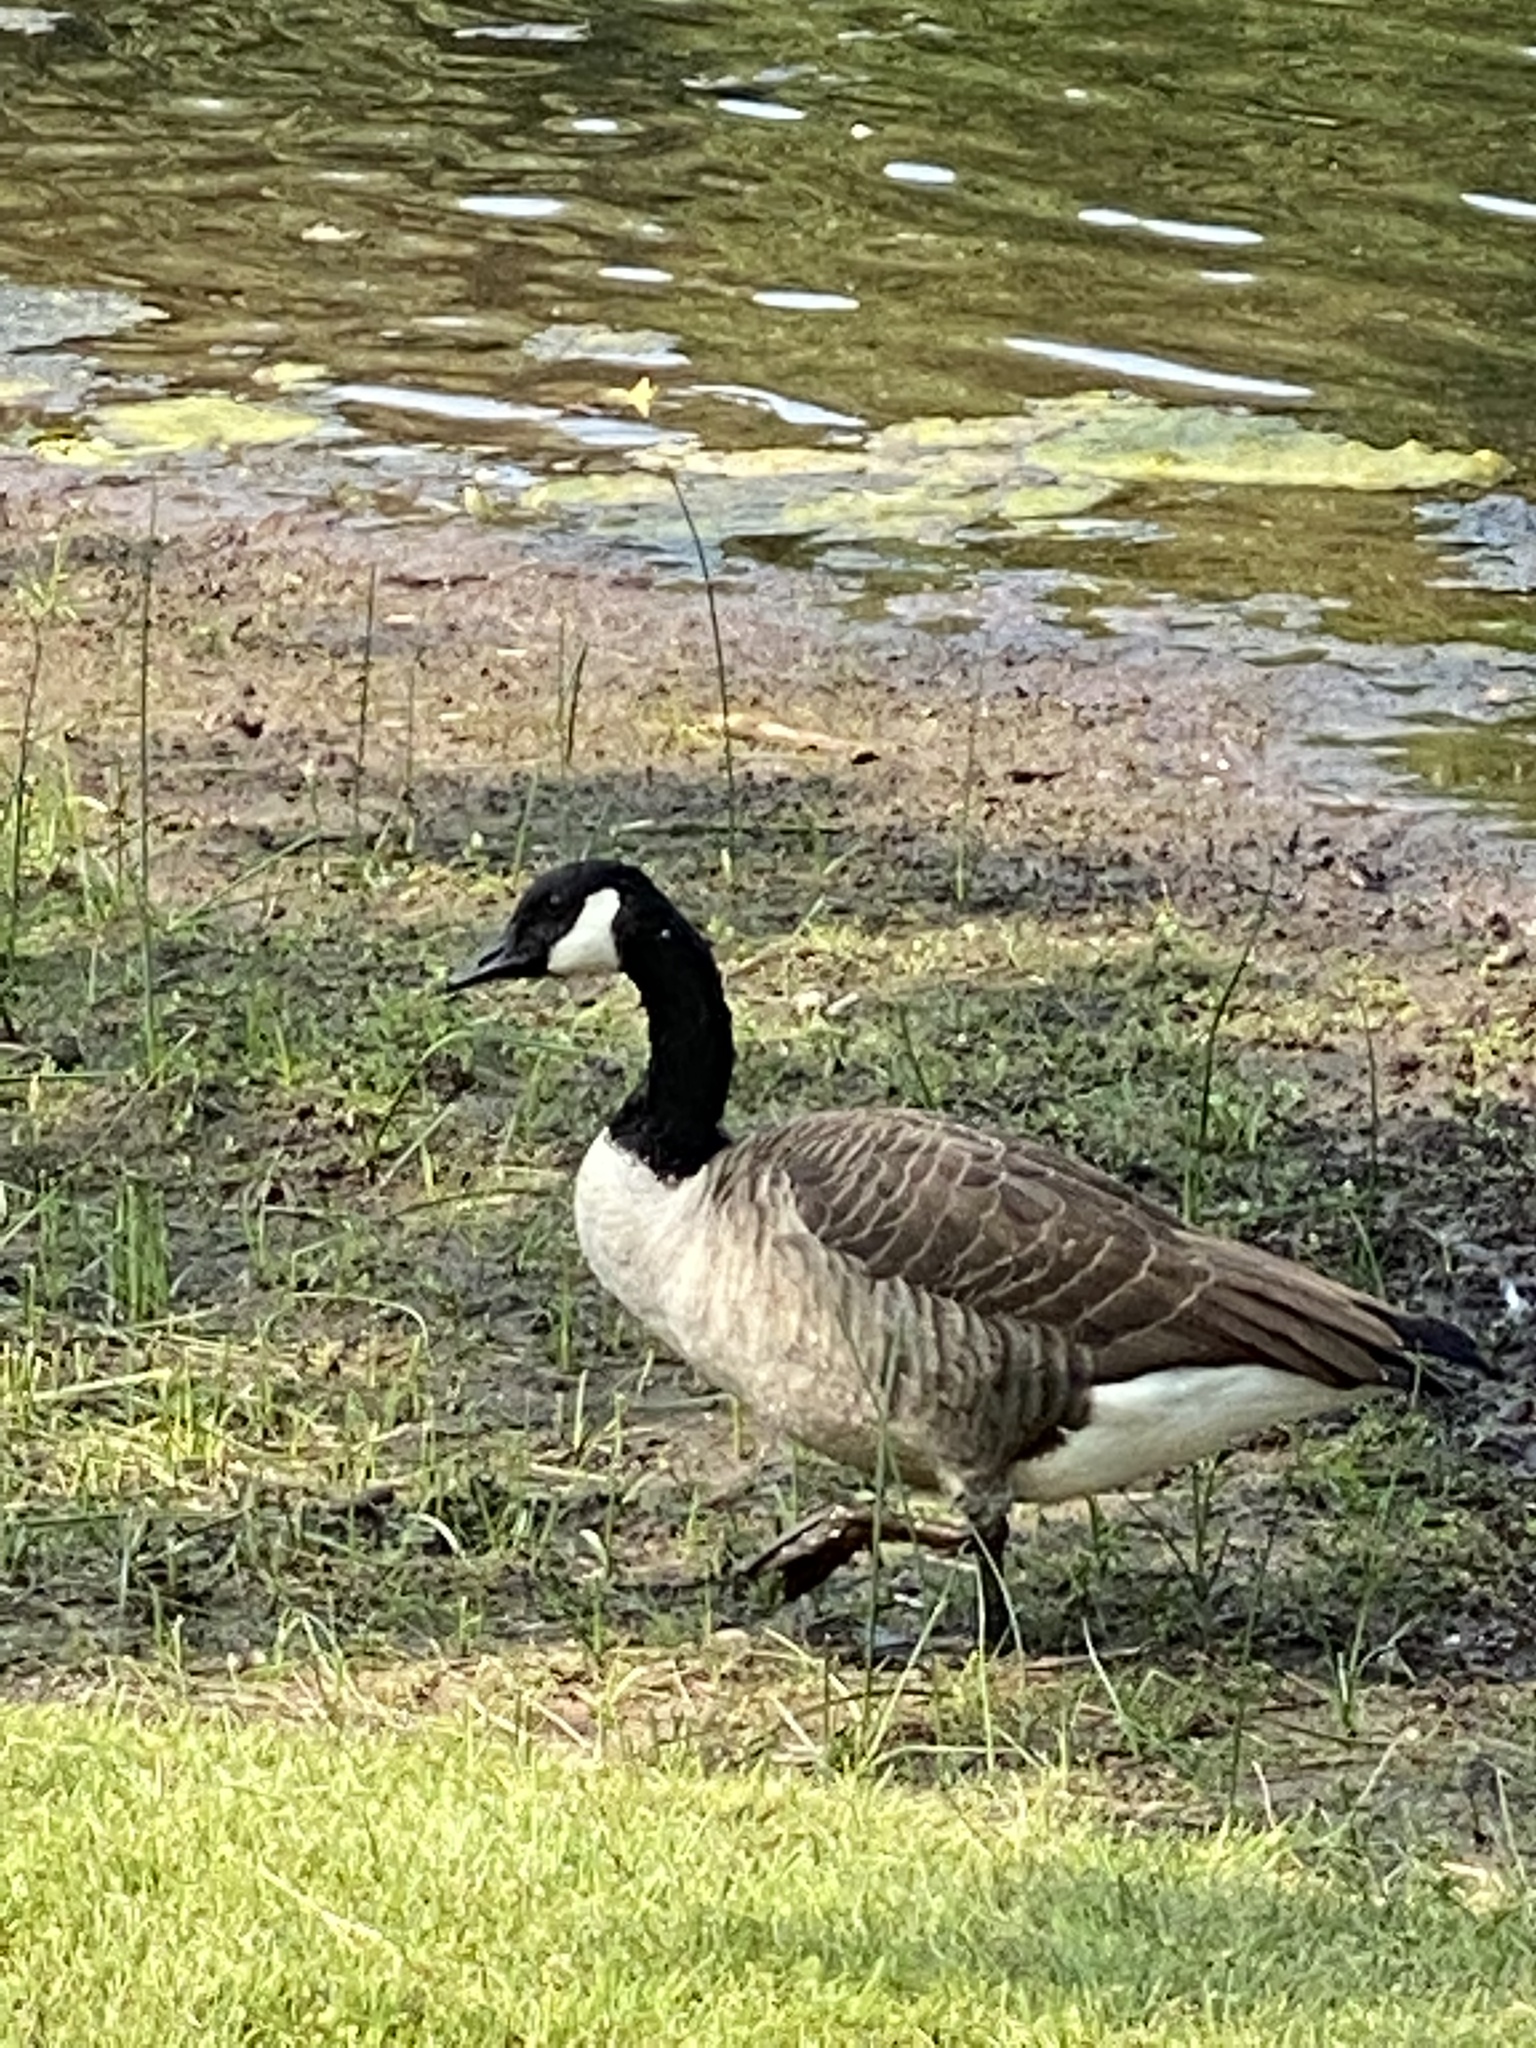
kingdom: Animalia
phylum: Chordata
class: Aves
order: Anseriformes
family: Anatidae
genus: Branta
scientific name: Branta canadensis
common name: Canada goose
